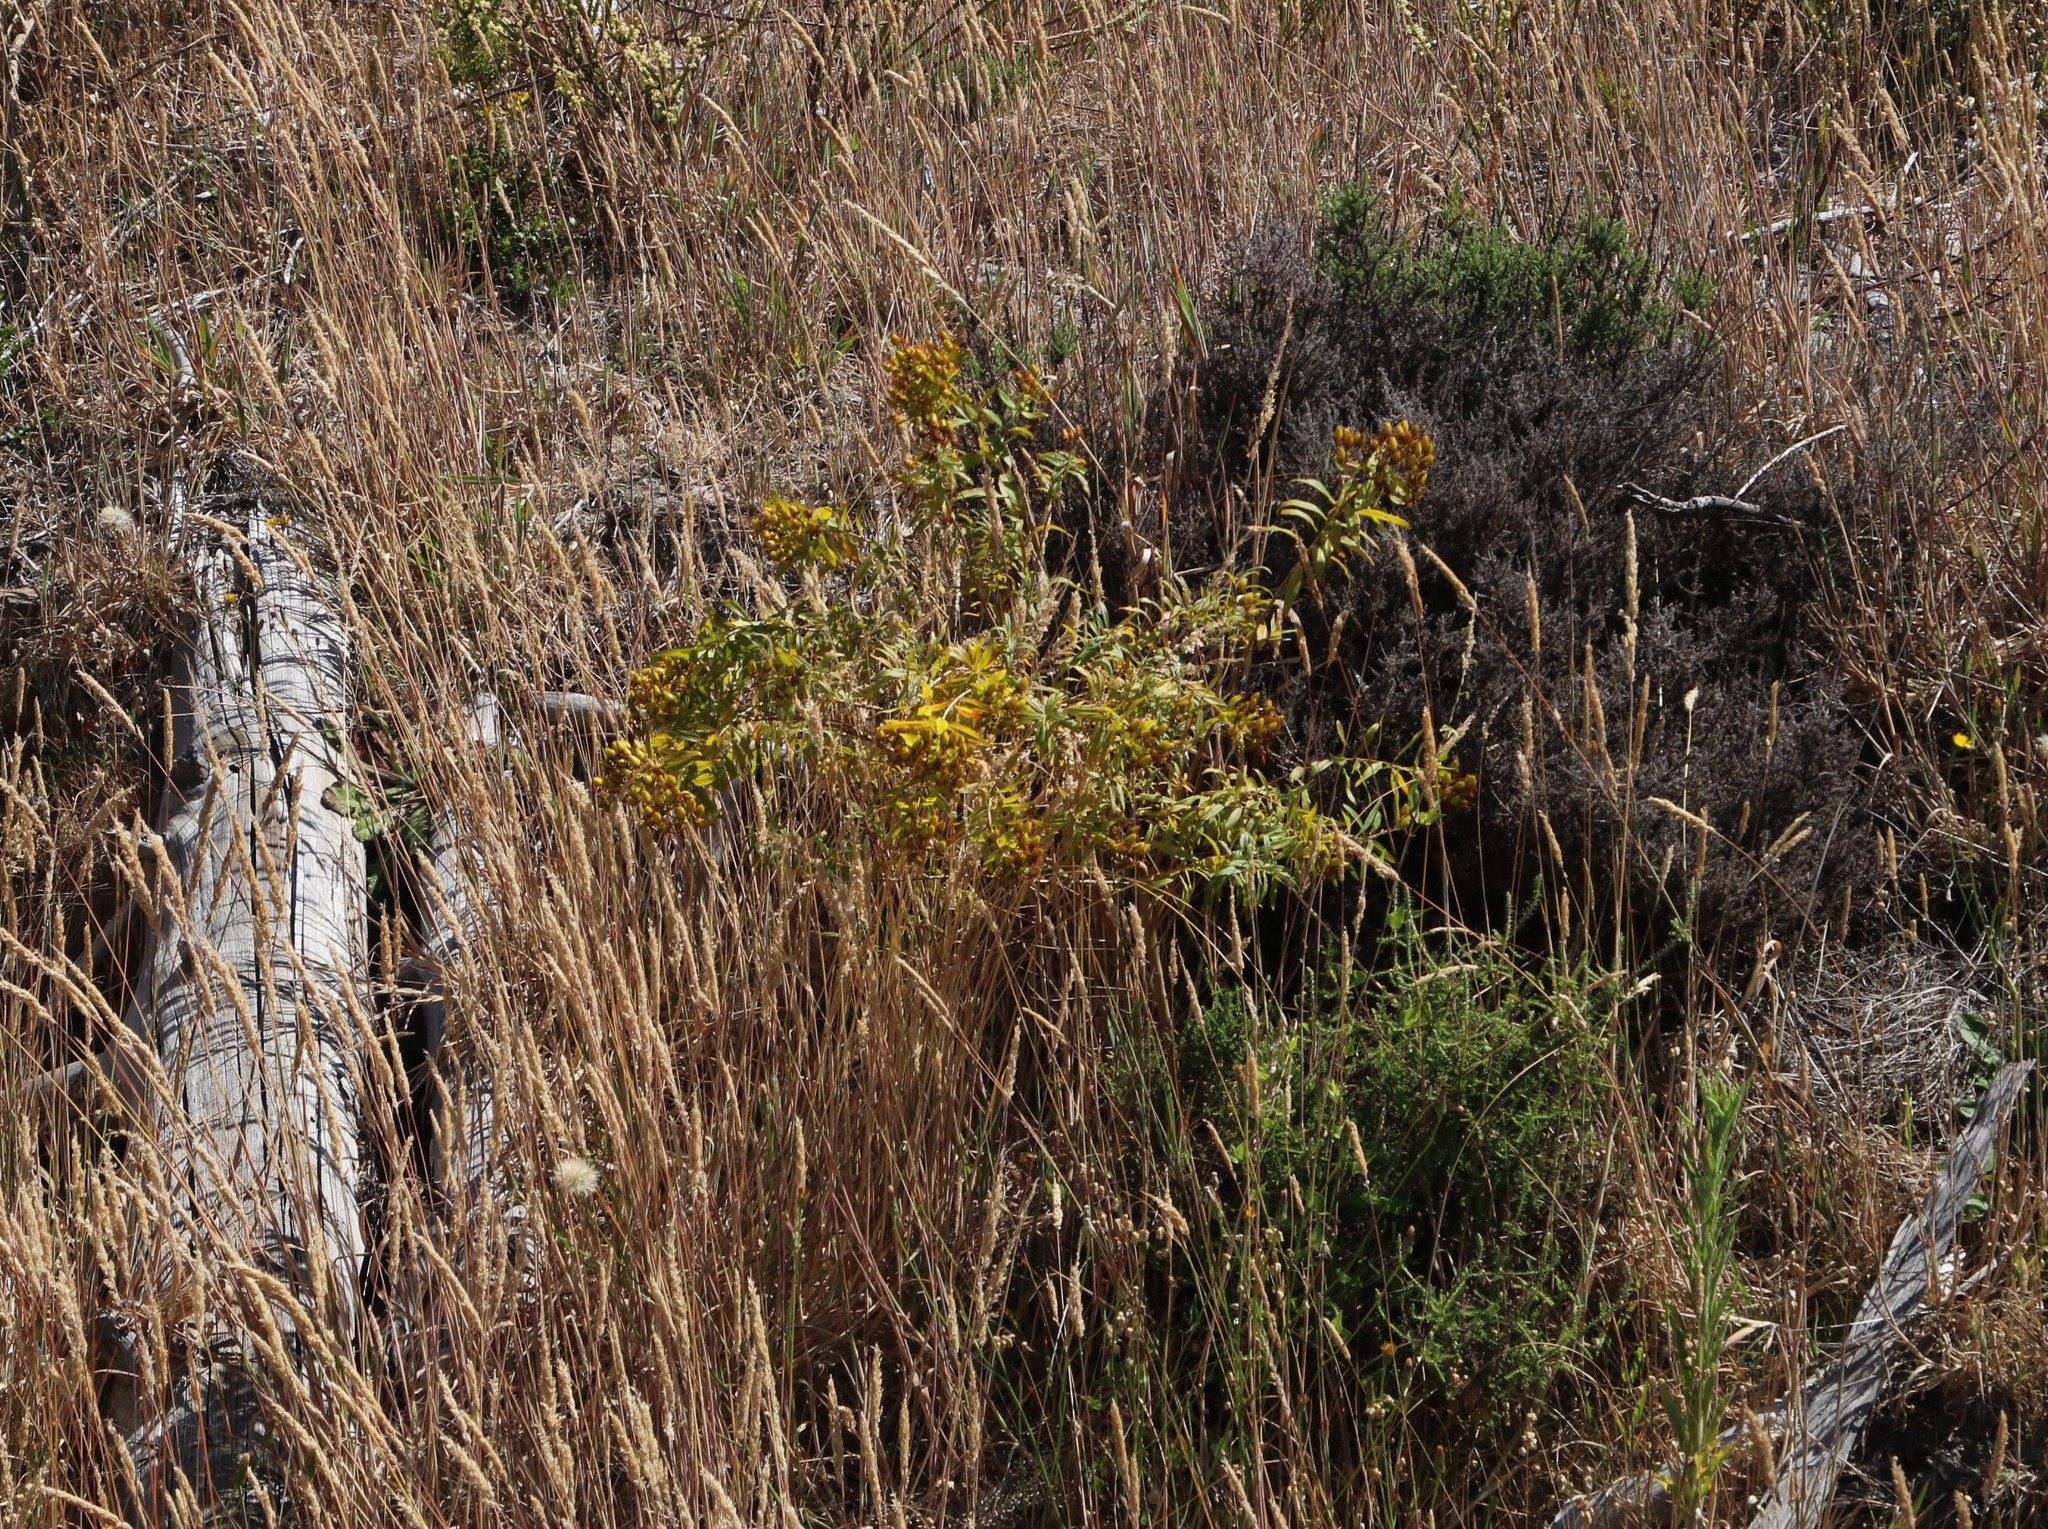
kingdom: Plantae
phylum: Tracheophyta
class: Magnoliopsida
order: Malpighiales
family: Hypericaceae
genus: Hypericum
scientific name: Hypericum canariense
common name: Canary island st. johnswort
